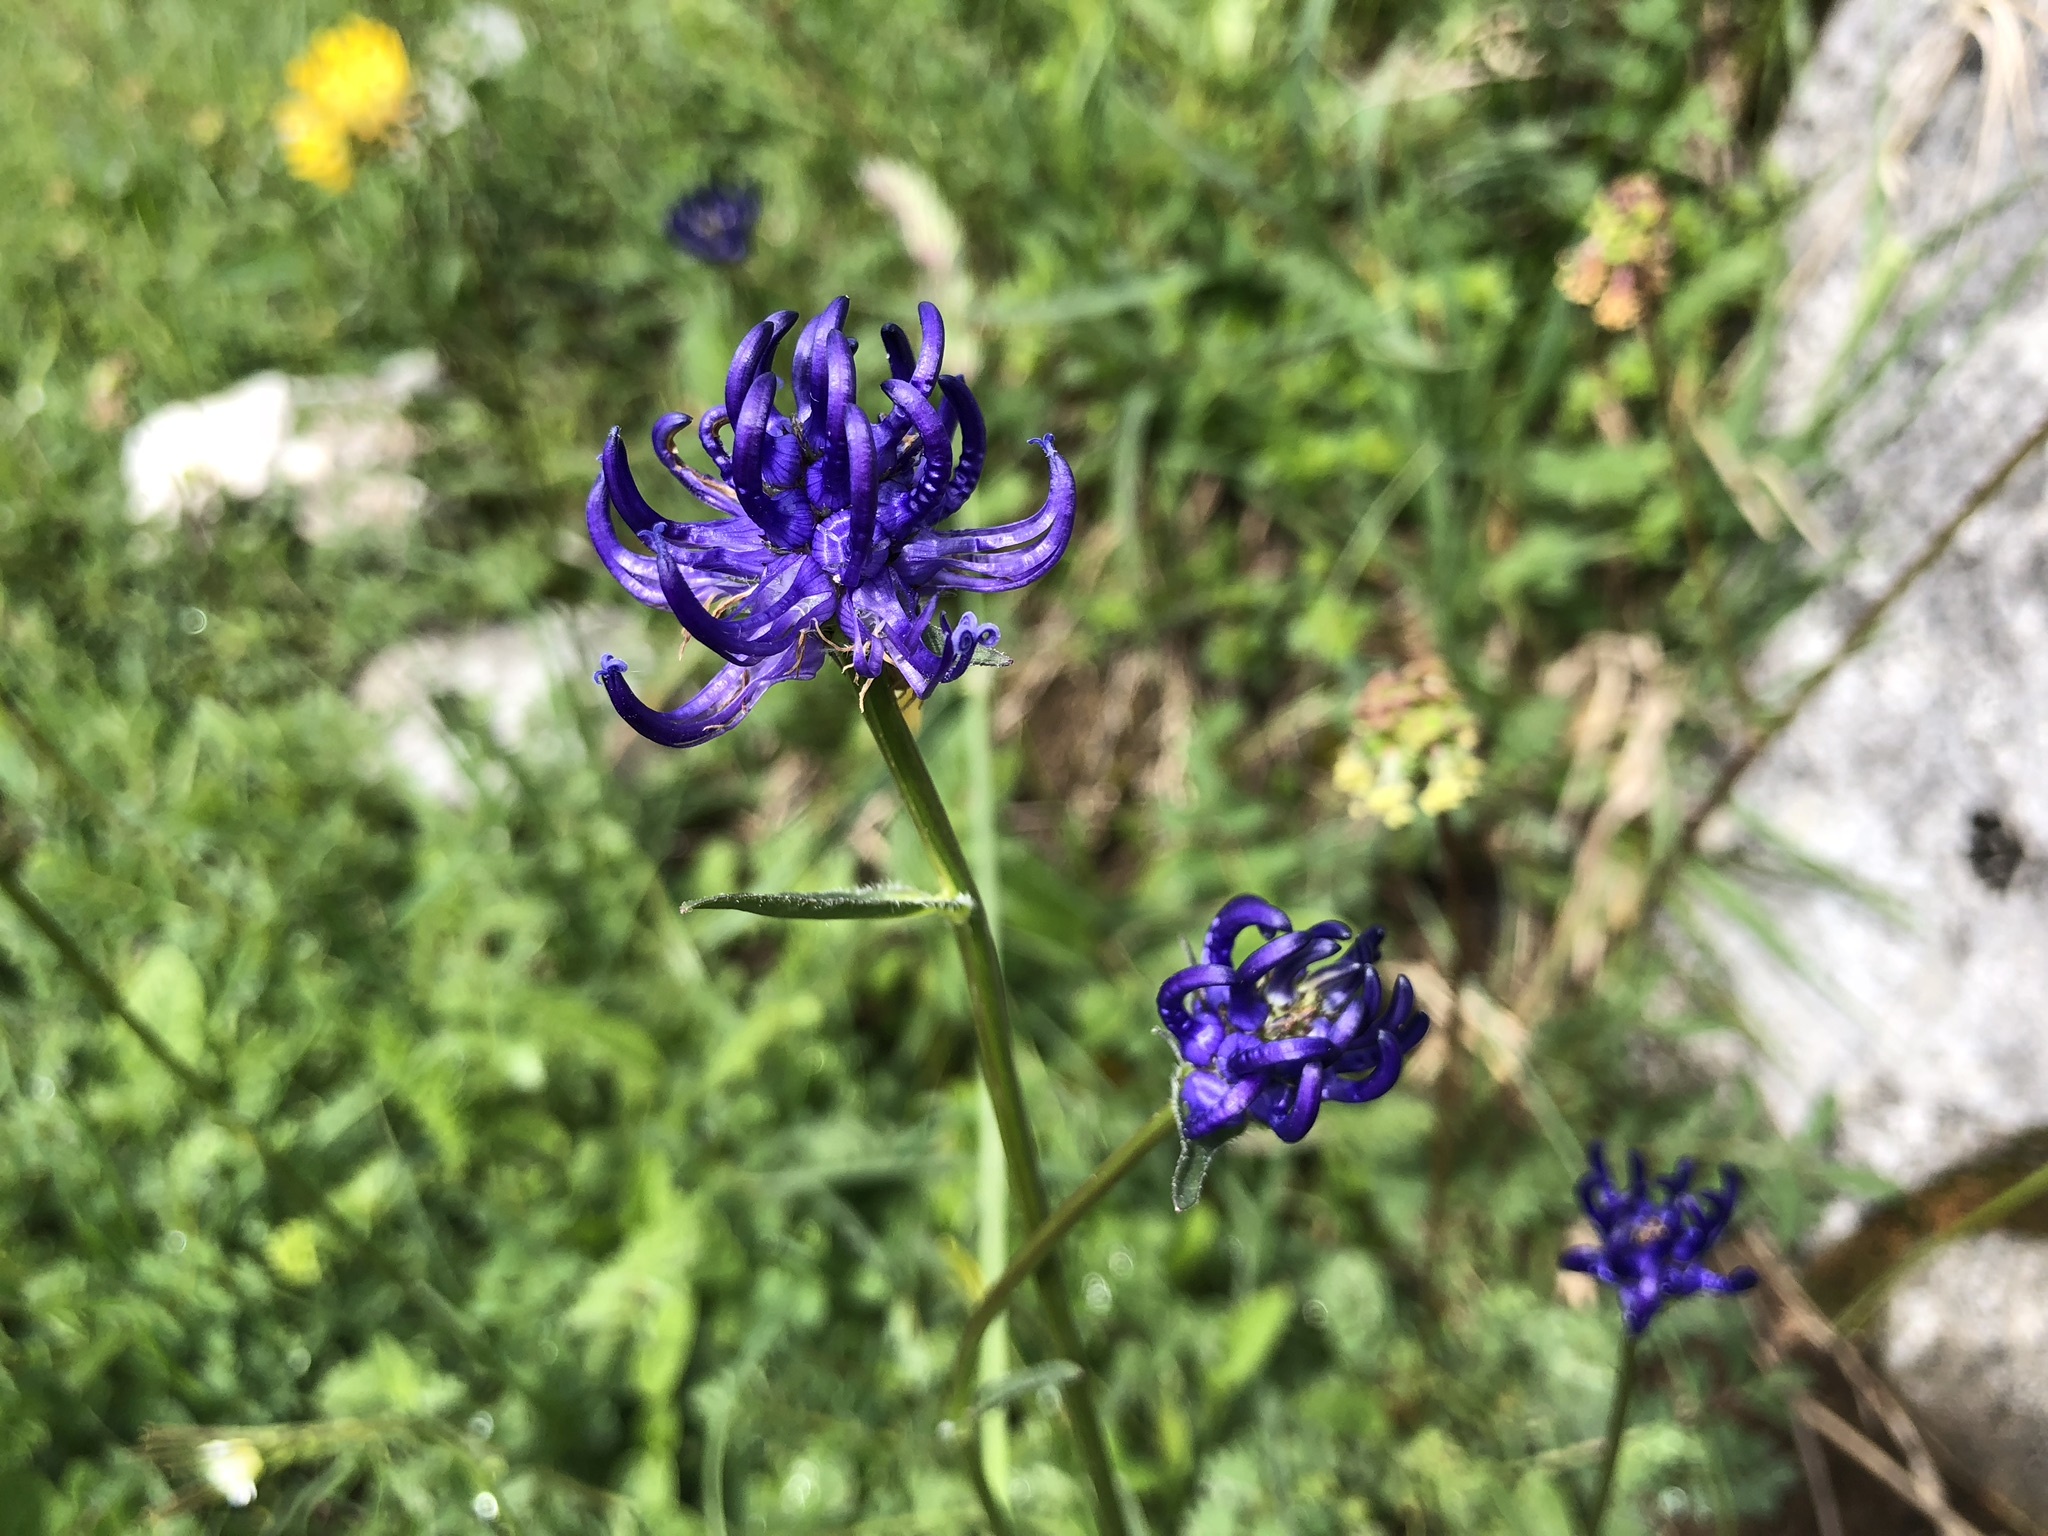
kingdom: Plantae
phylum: Tracheophyta
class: Magnoliopsida
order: Asterales
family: Campanulaceae
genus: Phyteuma
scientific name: Phyteuma orbiculare
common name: Round-headed rampion
